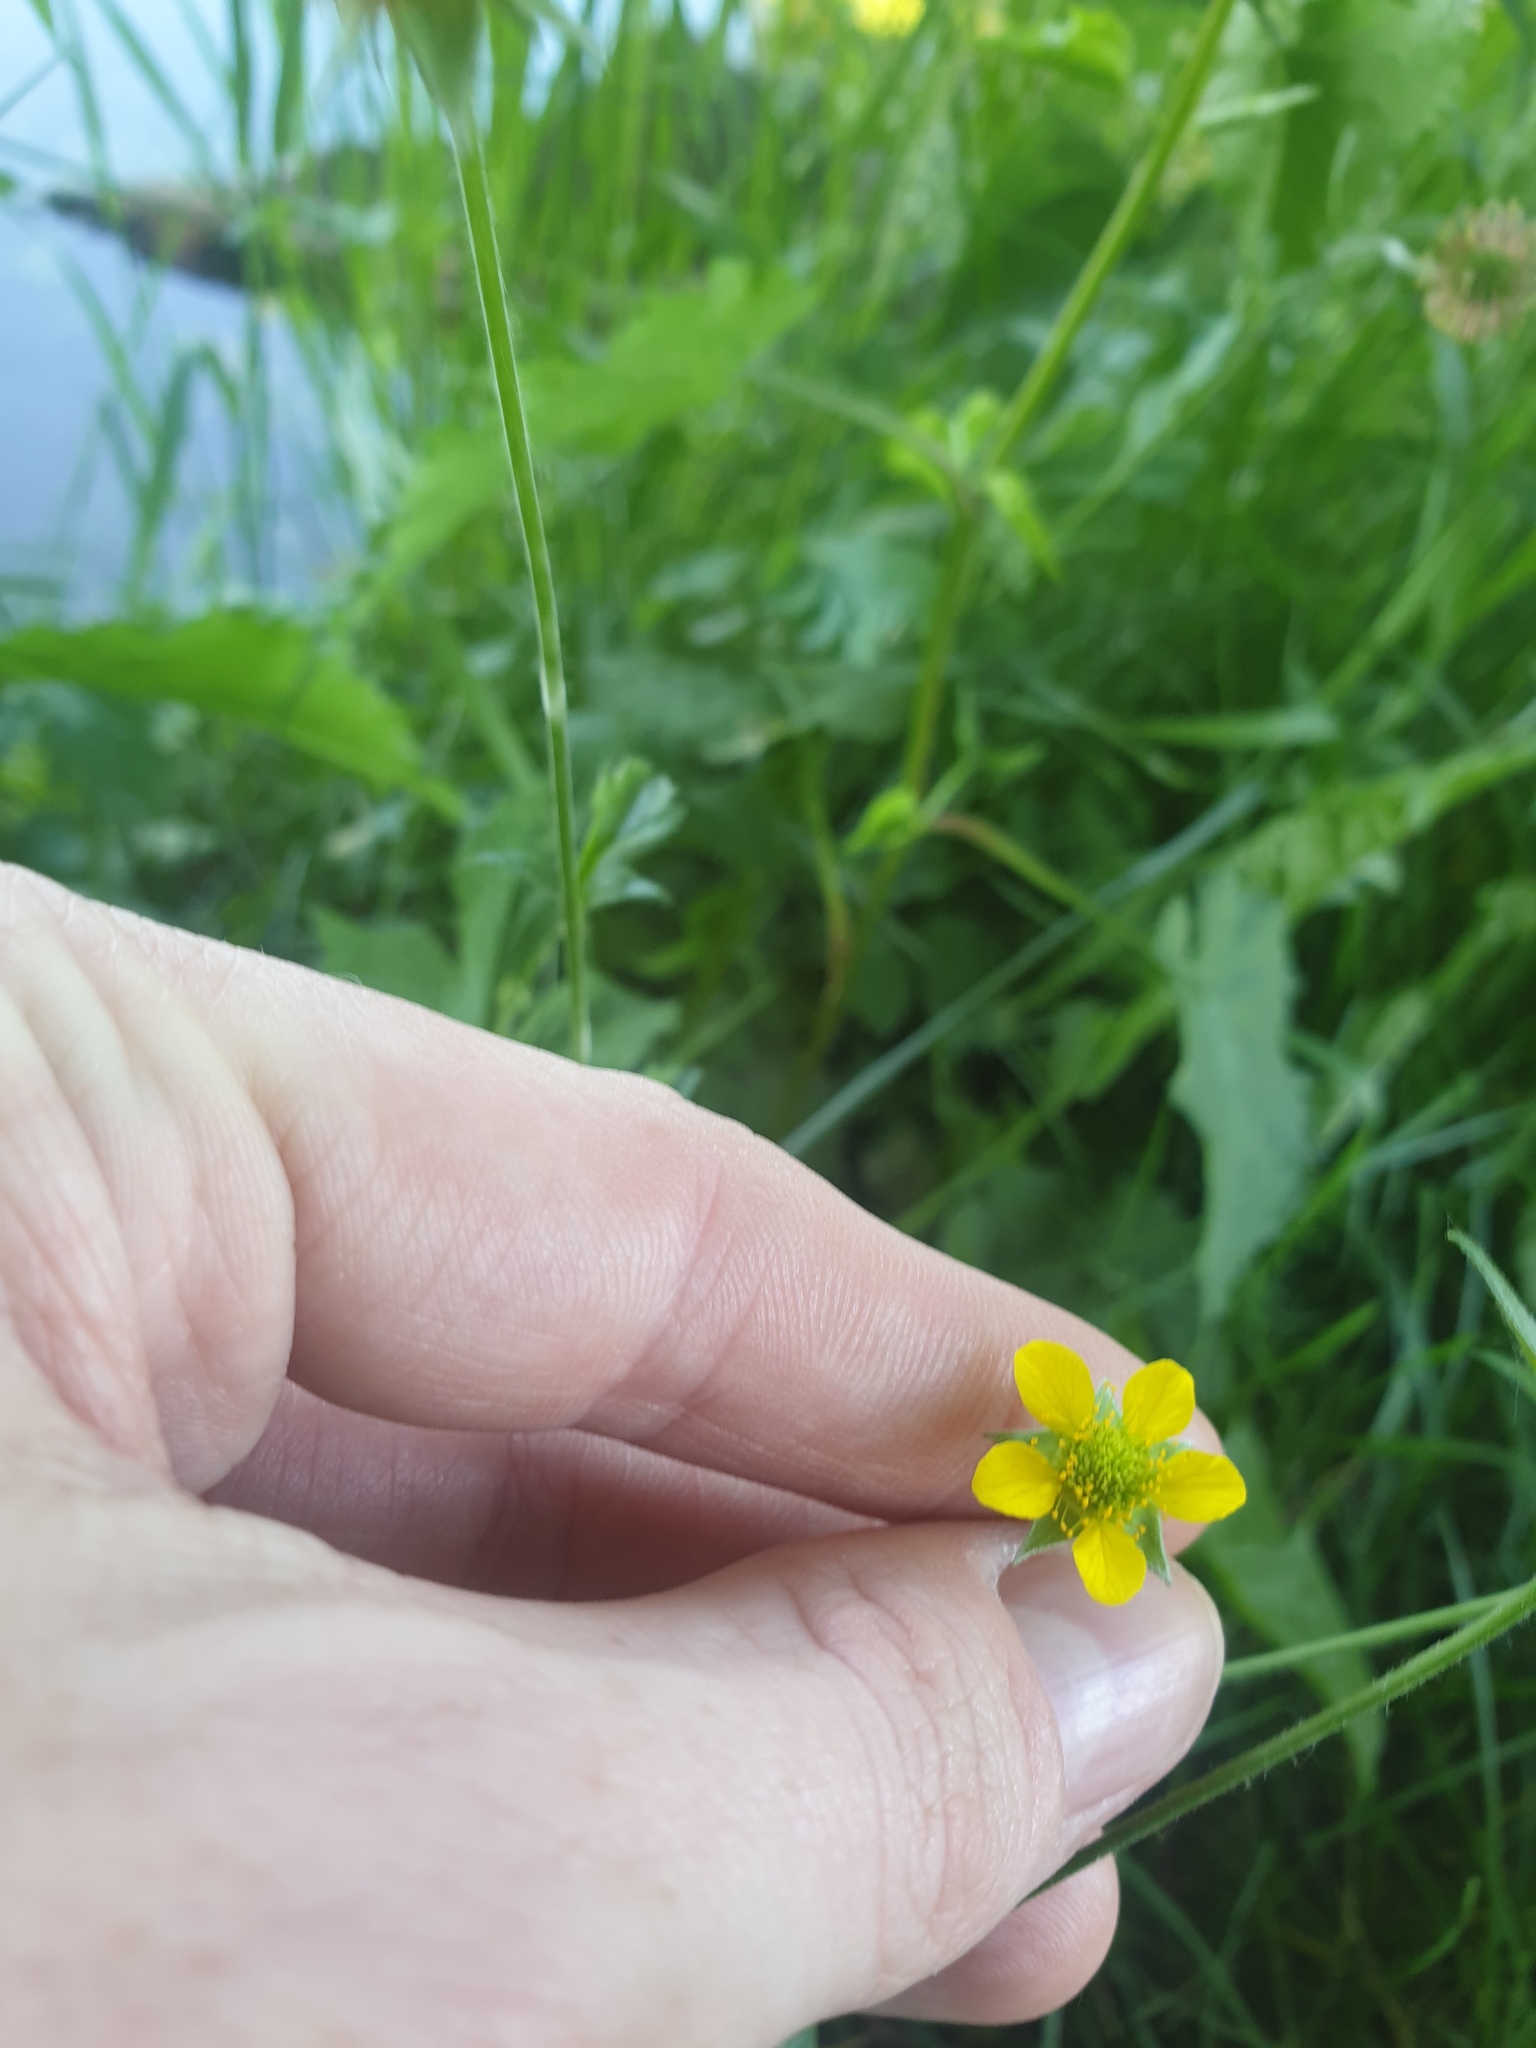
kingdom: Plantae
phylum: Tracheophyta
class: Magnoliopsida
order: Rosales
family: Rosaceae
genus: Geum
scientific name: Geum urbanum
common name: Wood avens
